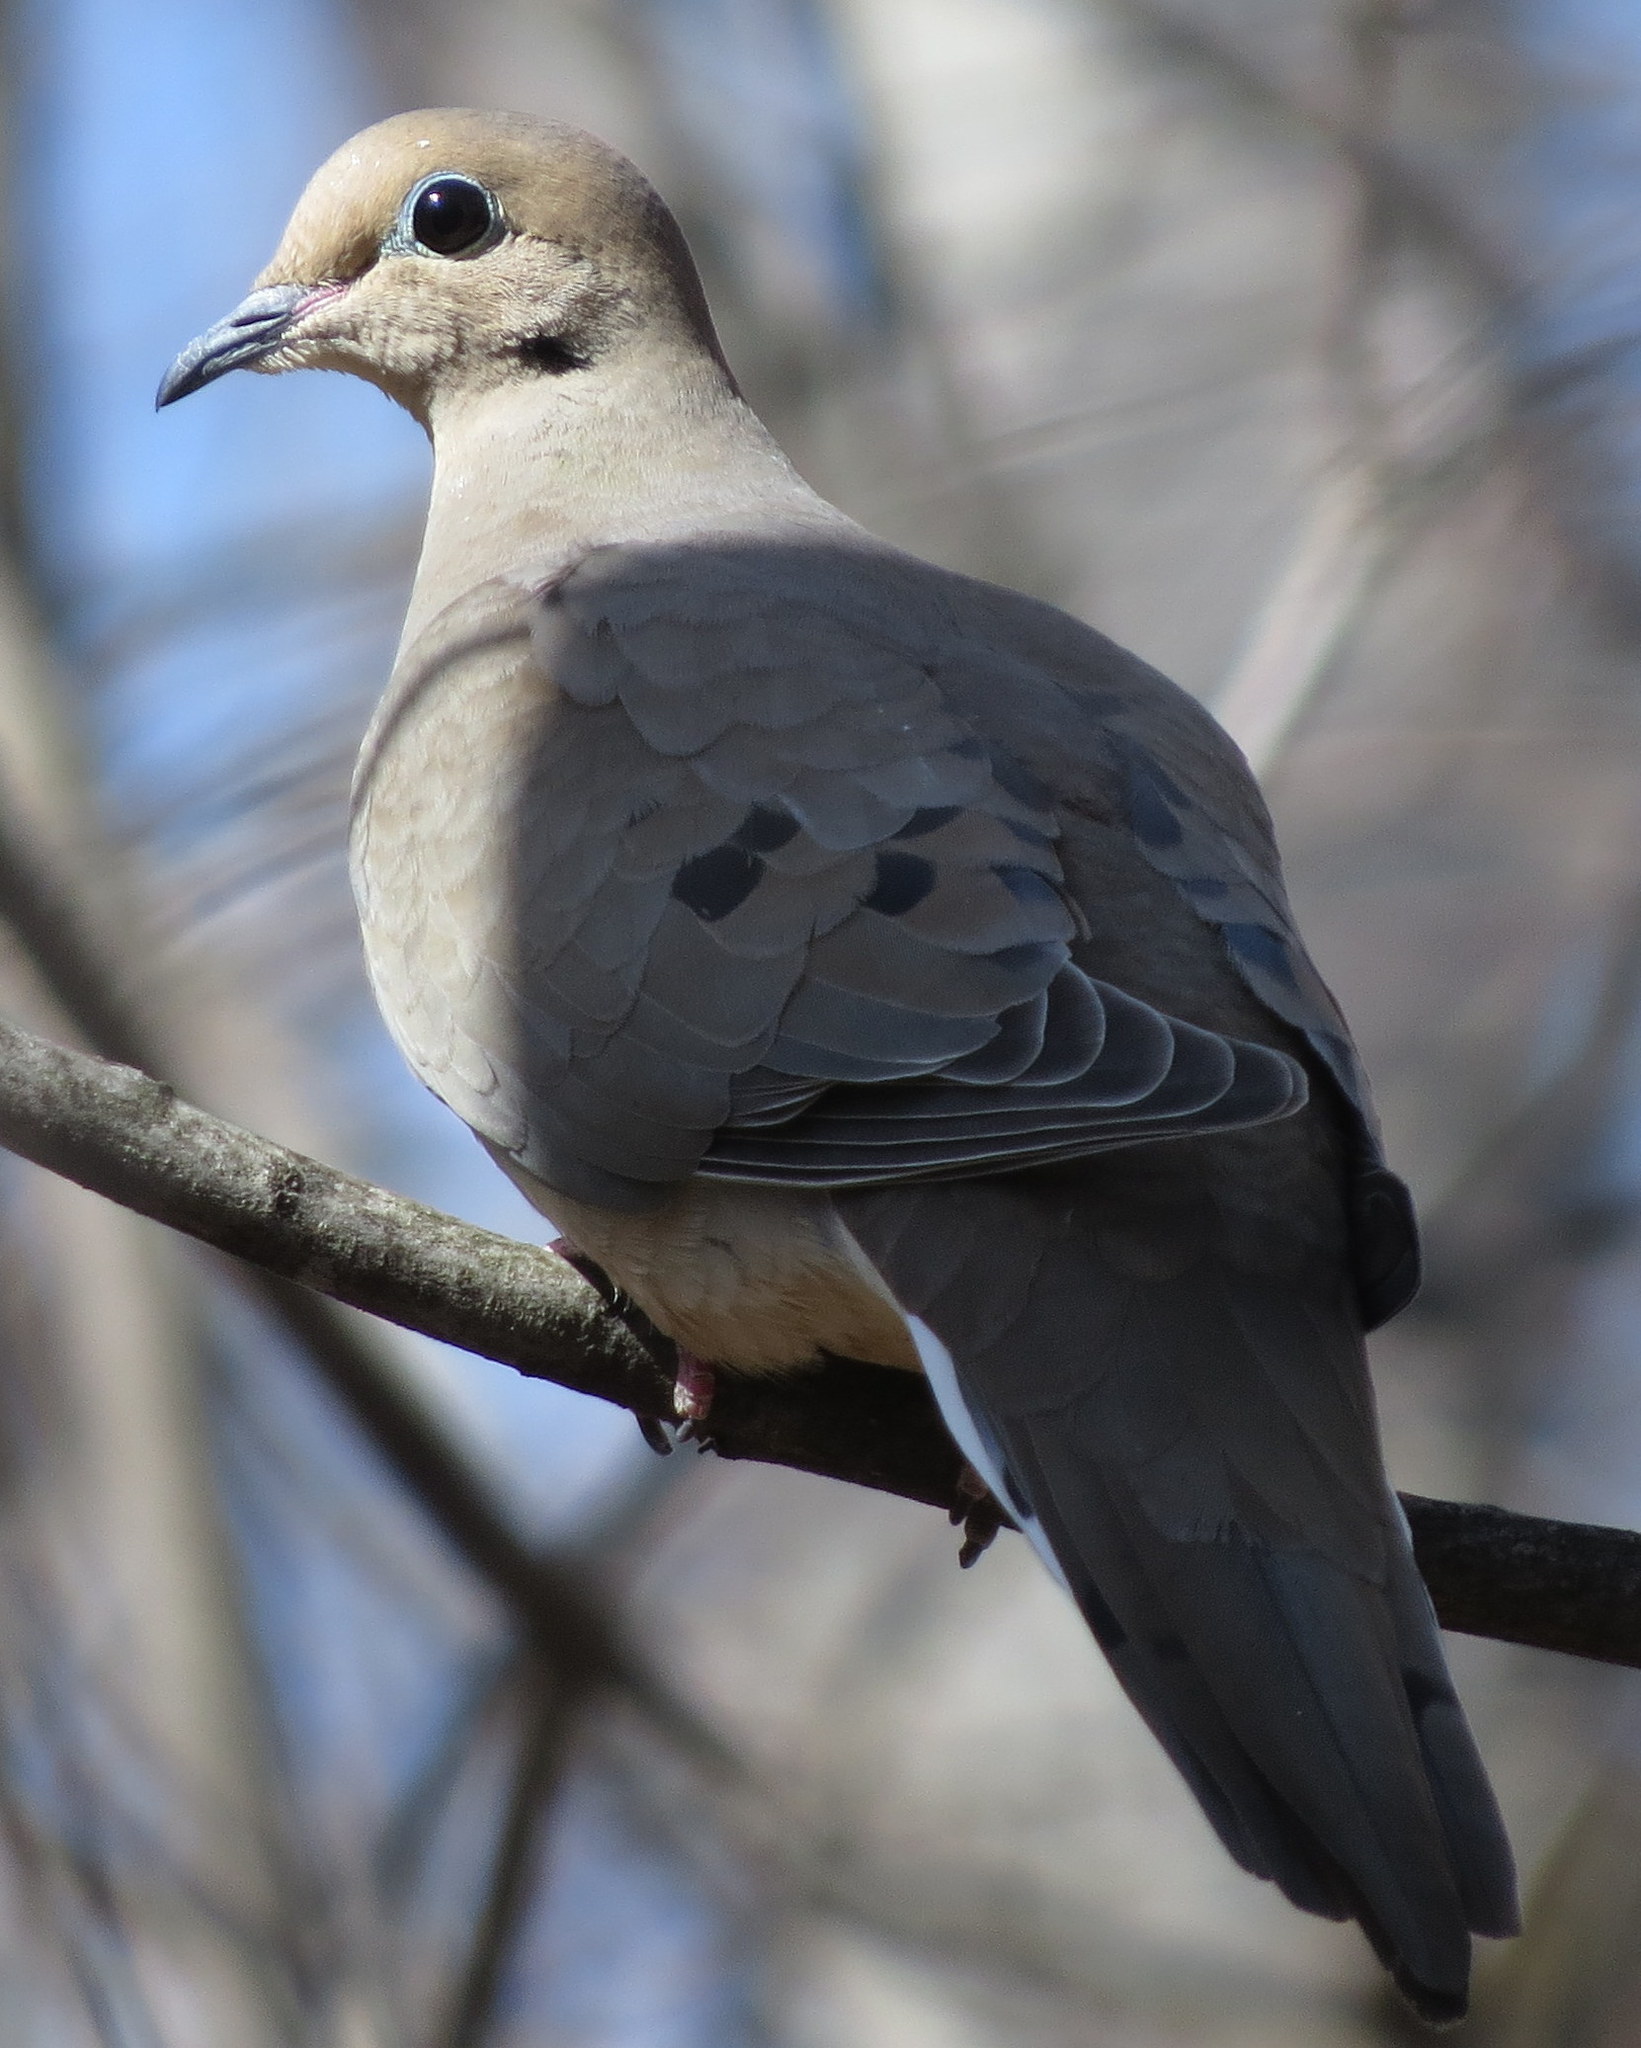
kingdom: Animalia
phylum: Chordata
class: Aves
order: Columbiformes
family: Columbidae
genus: Zenaida
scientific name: Zenaida macroura
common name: Mourning dove
